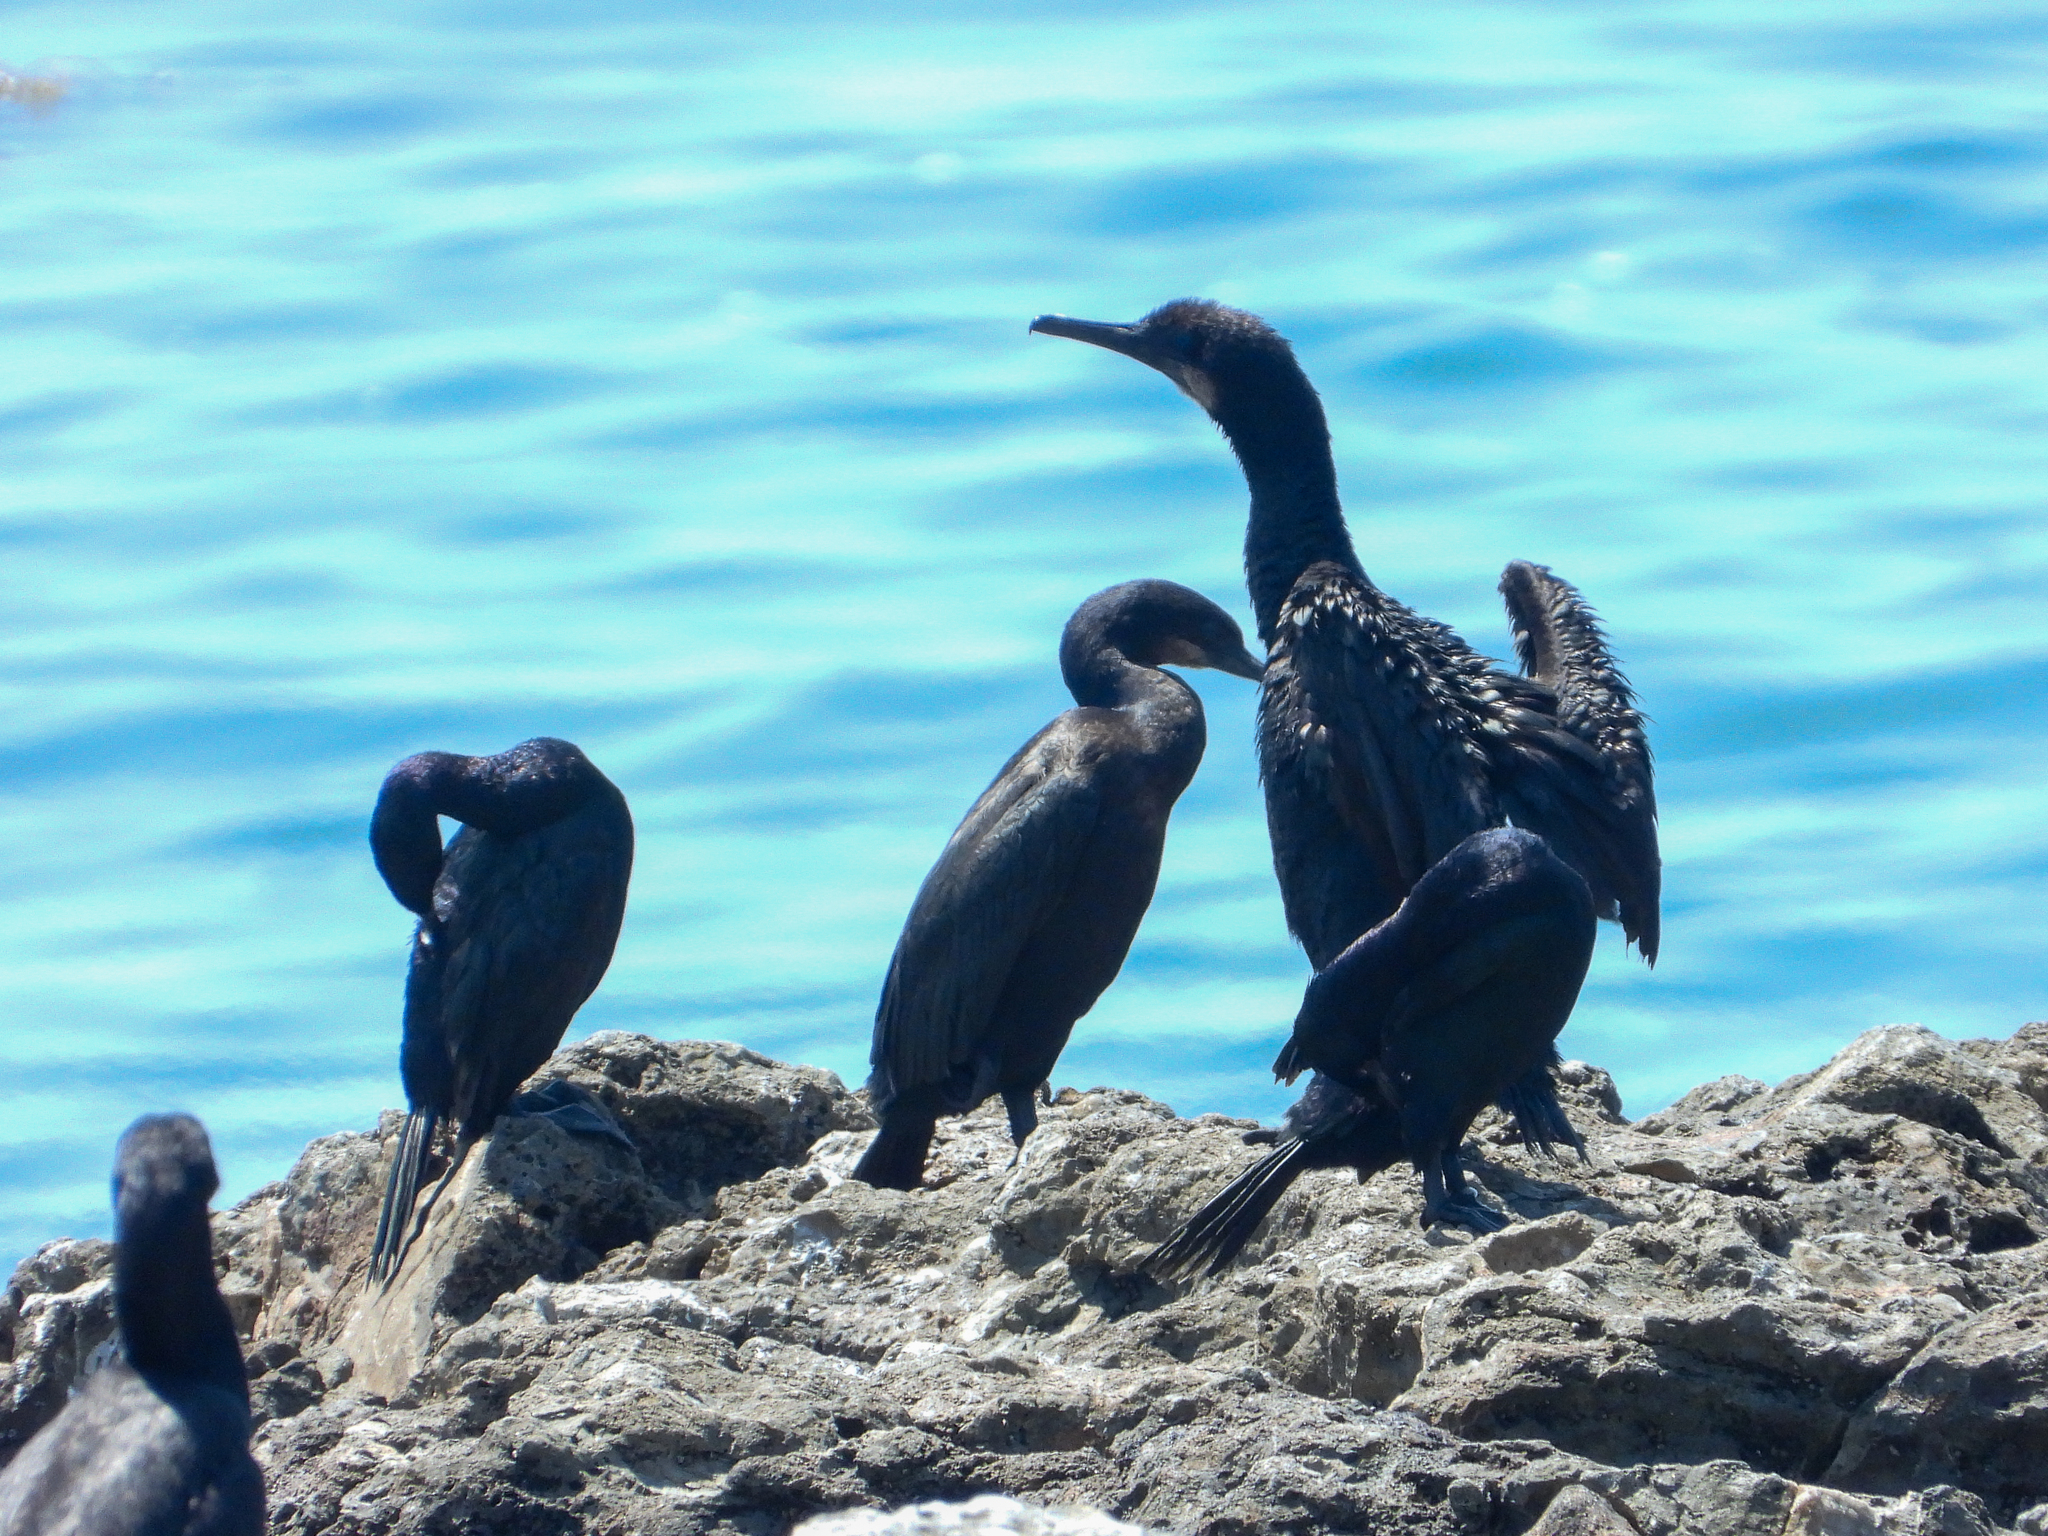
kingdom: Animalia
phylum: Chordata
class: Aves
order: Suliformes
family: Phalacrocoracidae
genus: Urile
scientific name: Urile penicillatus
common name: Brandt's cormorant
